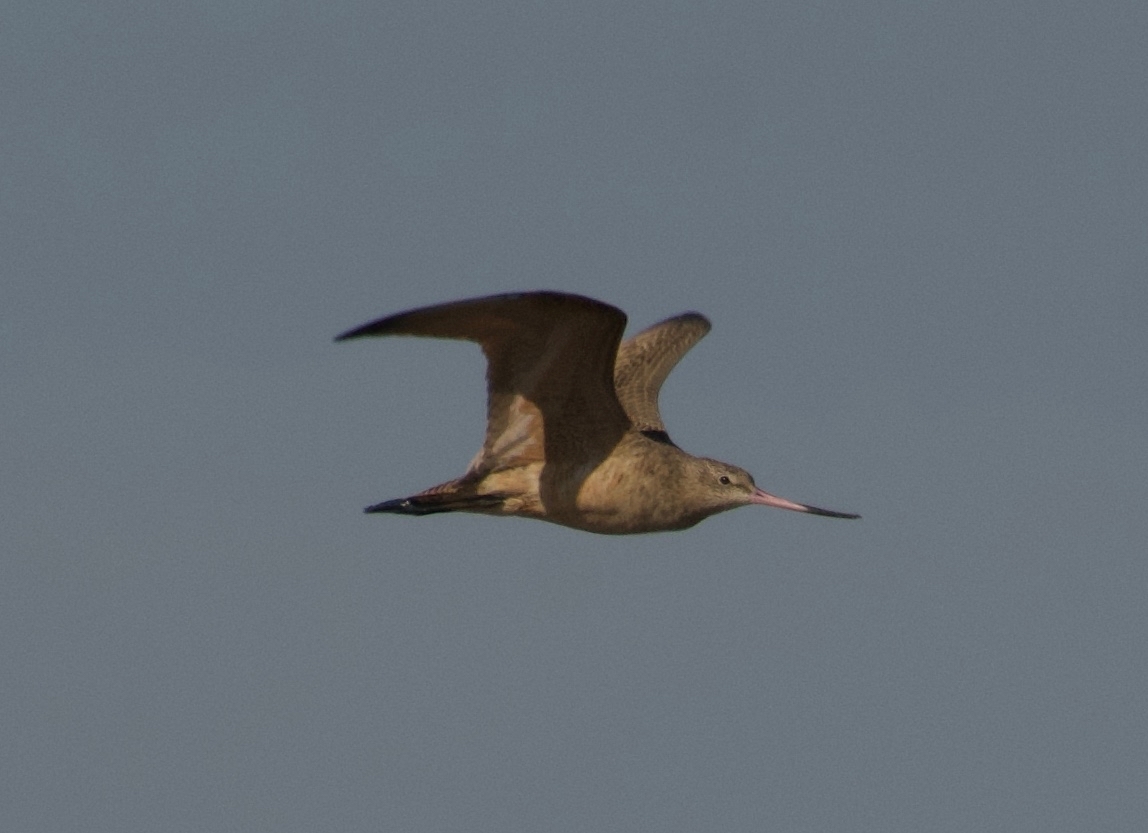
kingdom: Animalia
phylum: Chordata
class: Aves
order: Charadriiformes
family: Scolopacidae
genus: Limosa
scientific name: Limosa fedoa
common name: Marbled godwit
